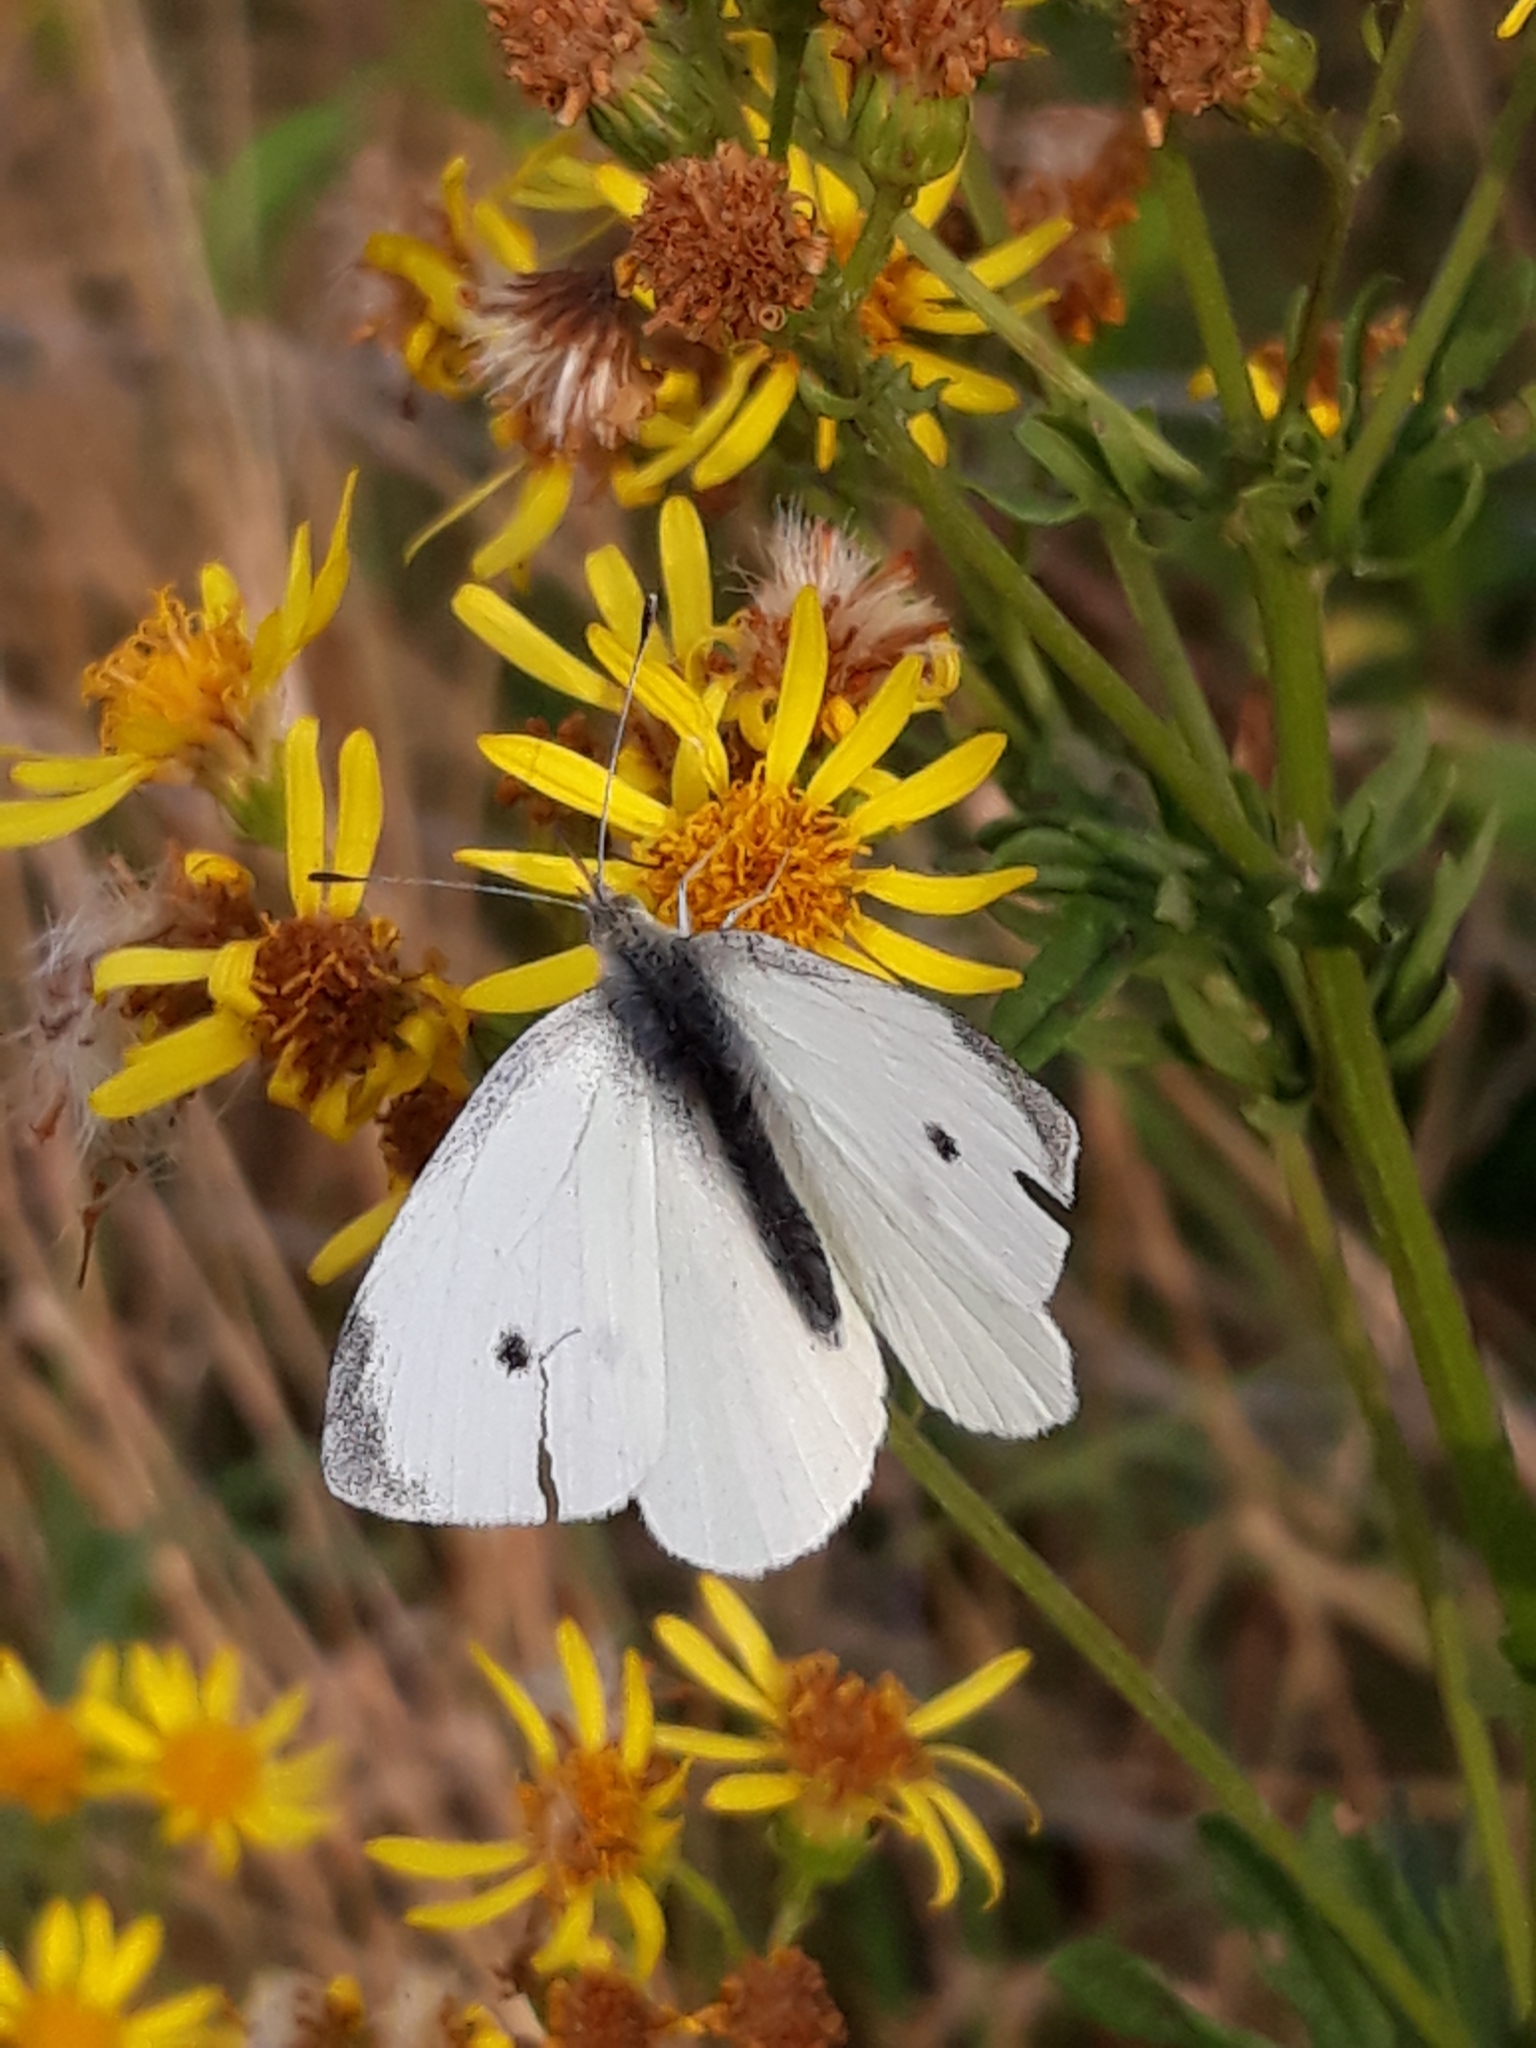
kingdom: Animalia
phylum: Arthropoda
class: Insecta
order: Lepidoptera
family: Pieridae
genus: Pieris
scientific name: Pieris rapae
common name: Small white
